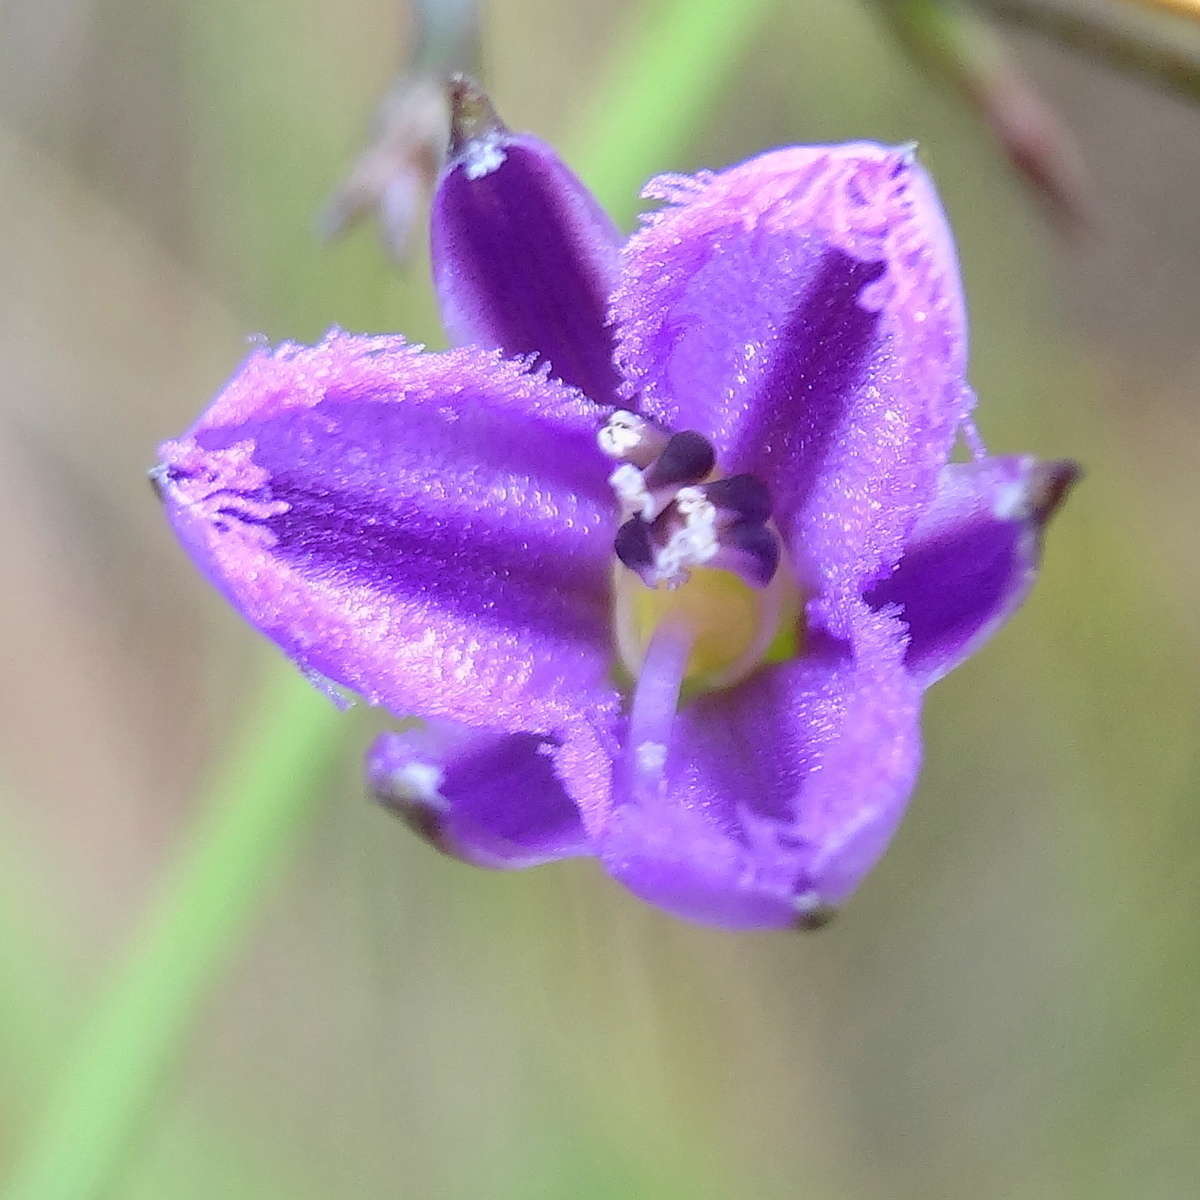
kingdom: Plantae
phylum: Tracheophyta
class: Liliopsida
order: Asparagales
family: Asparagaceae
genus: Thysanotus
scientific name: Thysanotus patersonii
